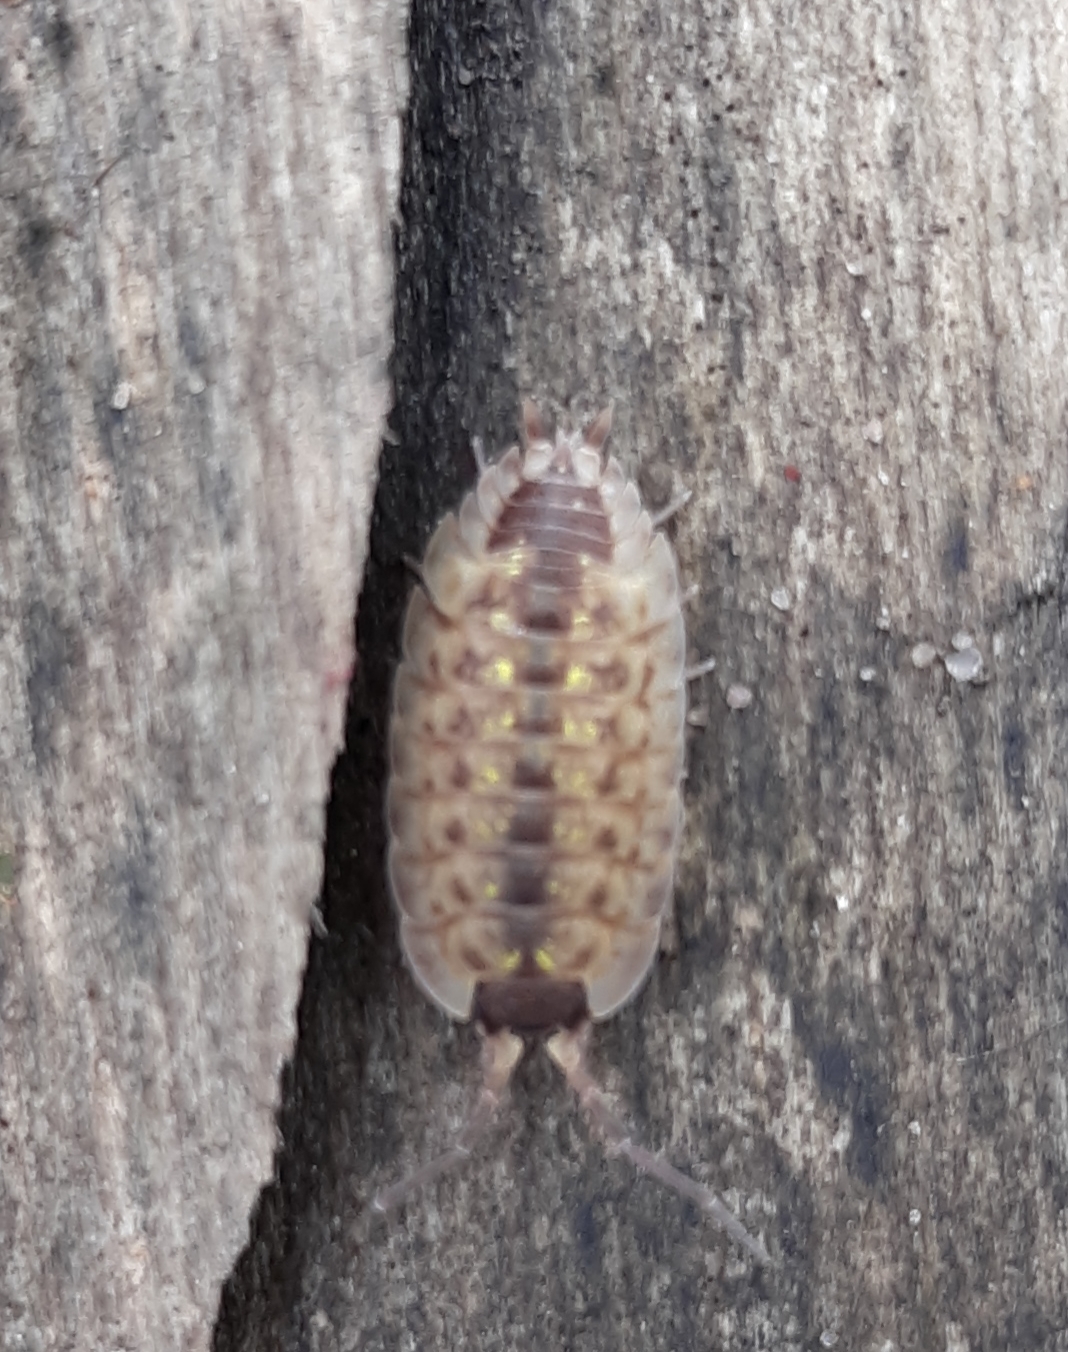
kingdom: Animalia
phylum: Arthropoda
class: Malacostraca
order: Isopoda
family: Porcellionidae
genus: Porcellio
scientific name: Porcellio spinicornis
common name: Painted woodlouse
